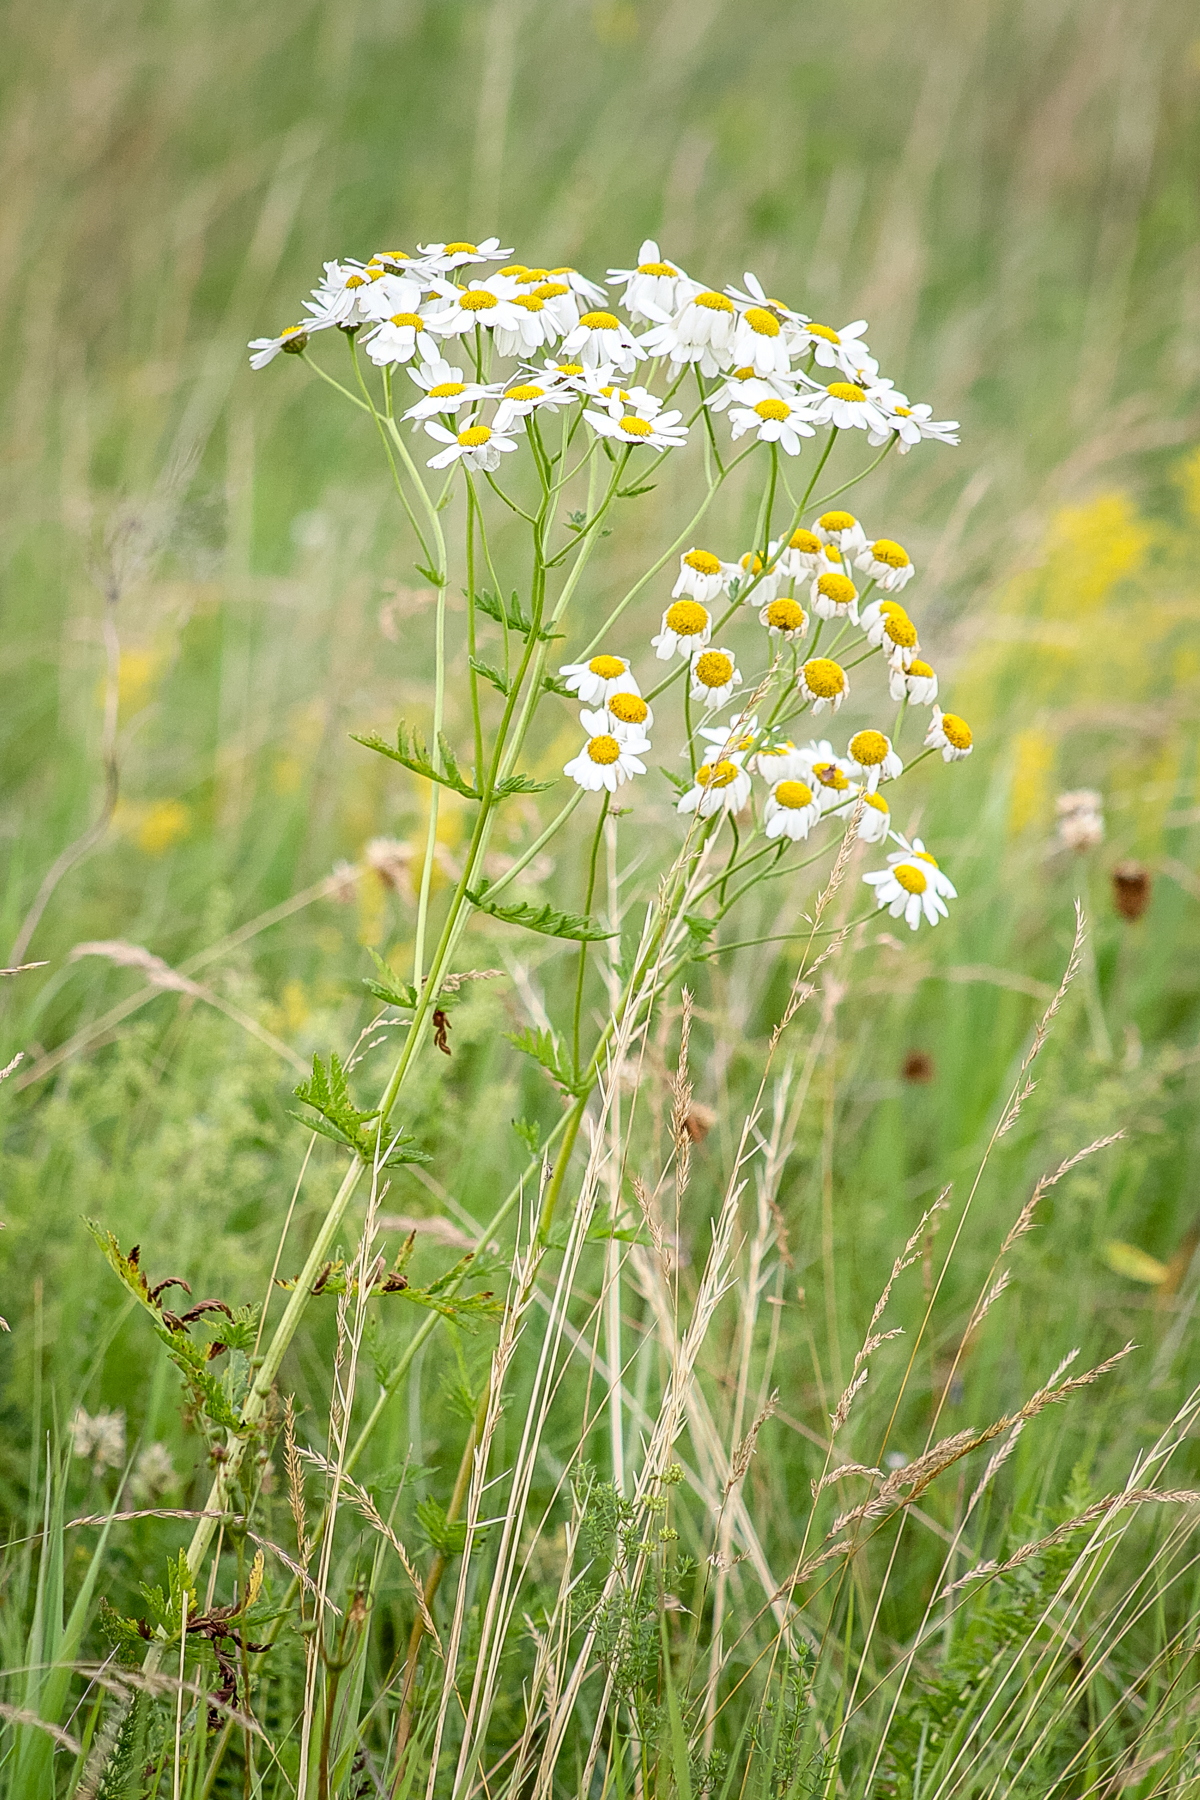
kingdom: Plantae
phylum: Tracheophyta
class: Magnoliopsida
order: Asterales
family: Asteraceae
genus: Tanacetum
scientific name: Tanacetum corymbosum
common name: Scentless feverfew
